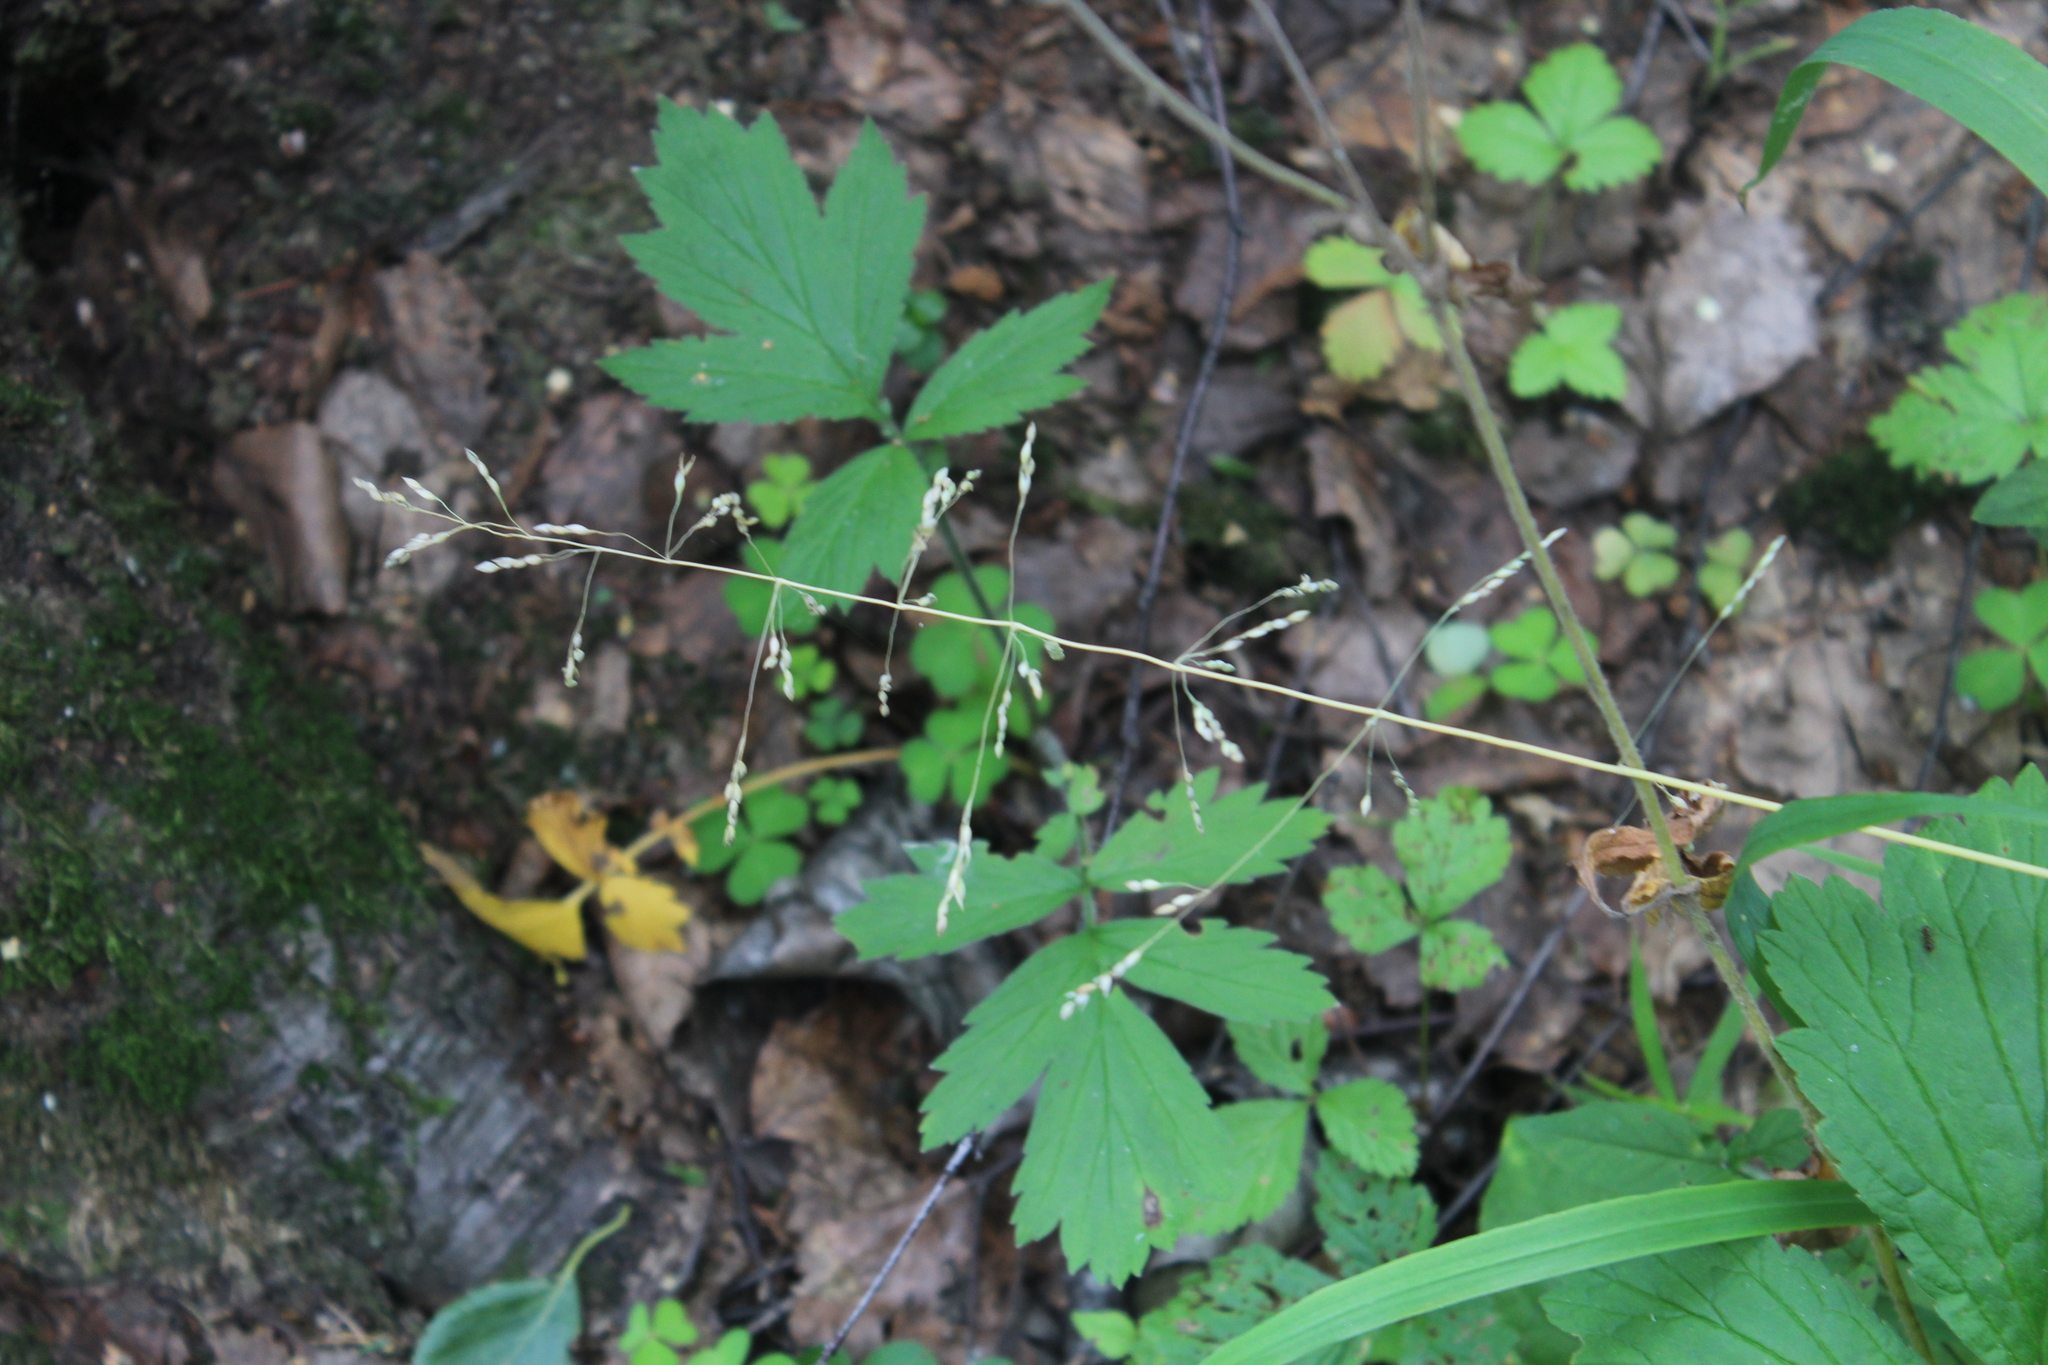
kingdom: Plantae
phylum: Tracheophyta
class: Liliopsida
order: Poales
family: Poaceae
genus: Milium
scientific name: Milium effusum
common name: Wood millet
